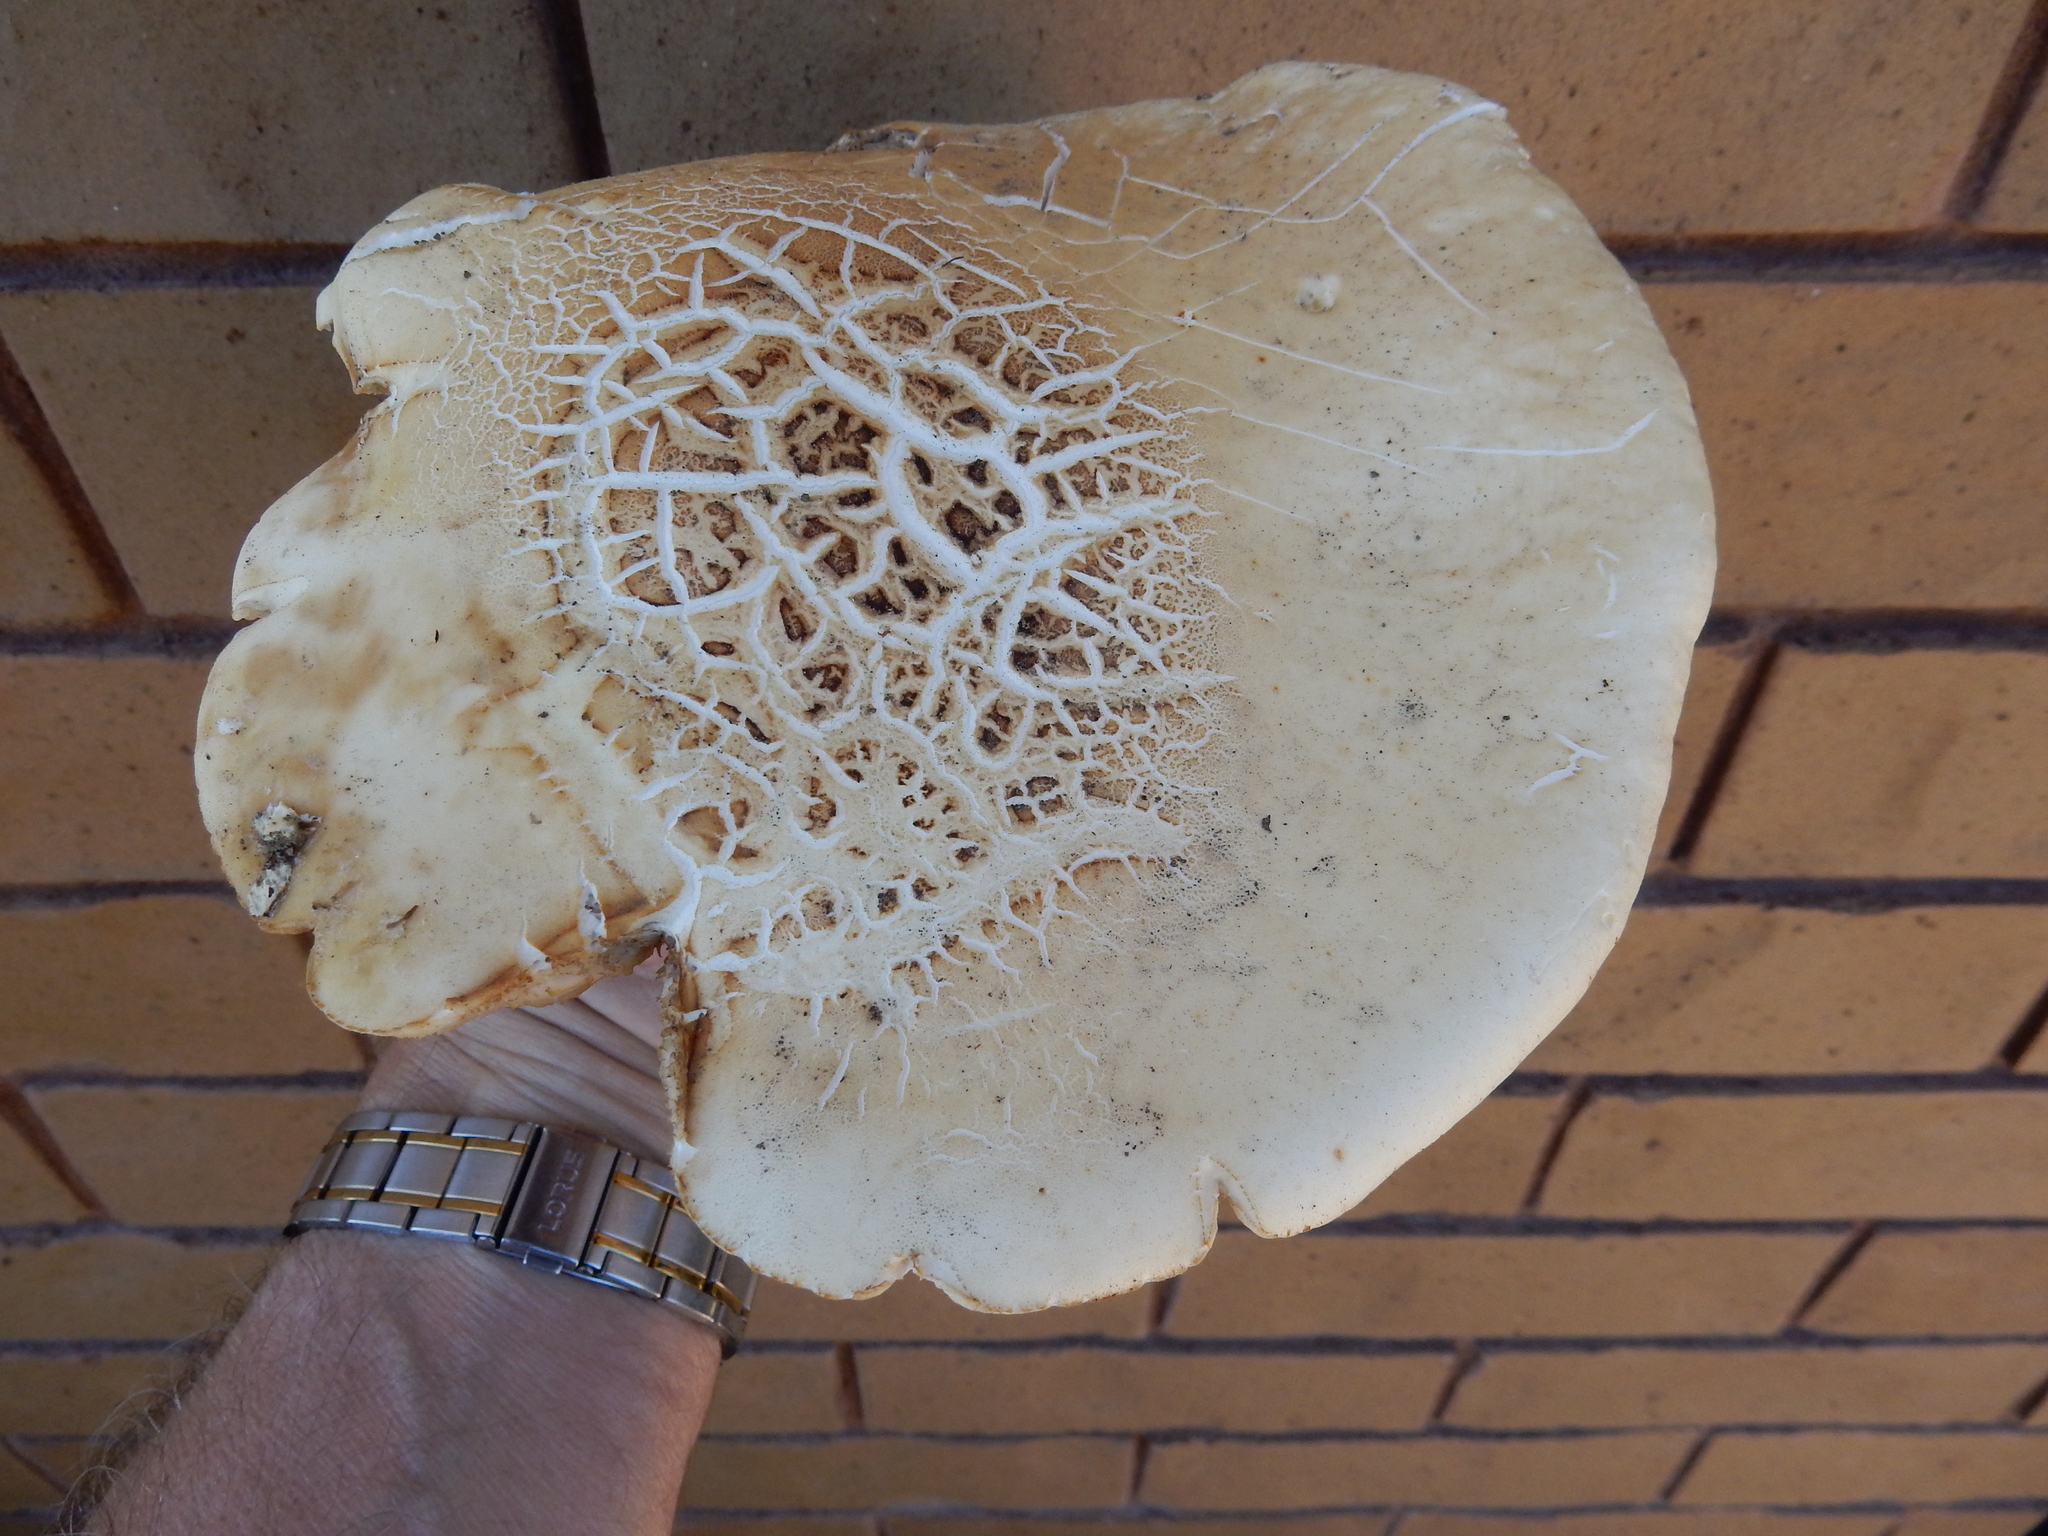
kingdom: Fungi
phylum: Basidiomycota
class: Agaricomycetes
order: Agaricales
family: Tubariaceae
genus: Cyclocybe
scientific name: Cyclocybe parasitica
